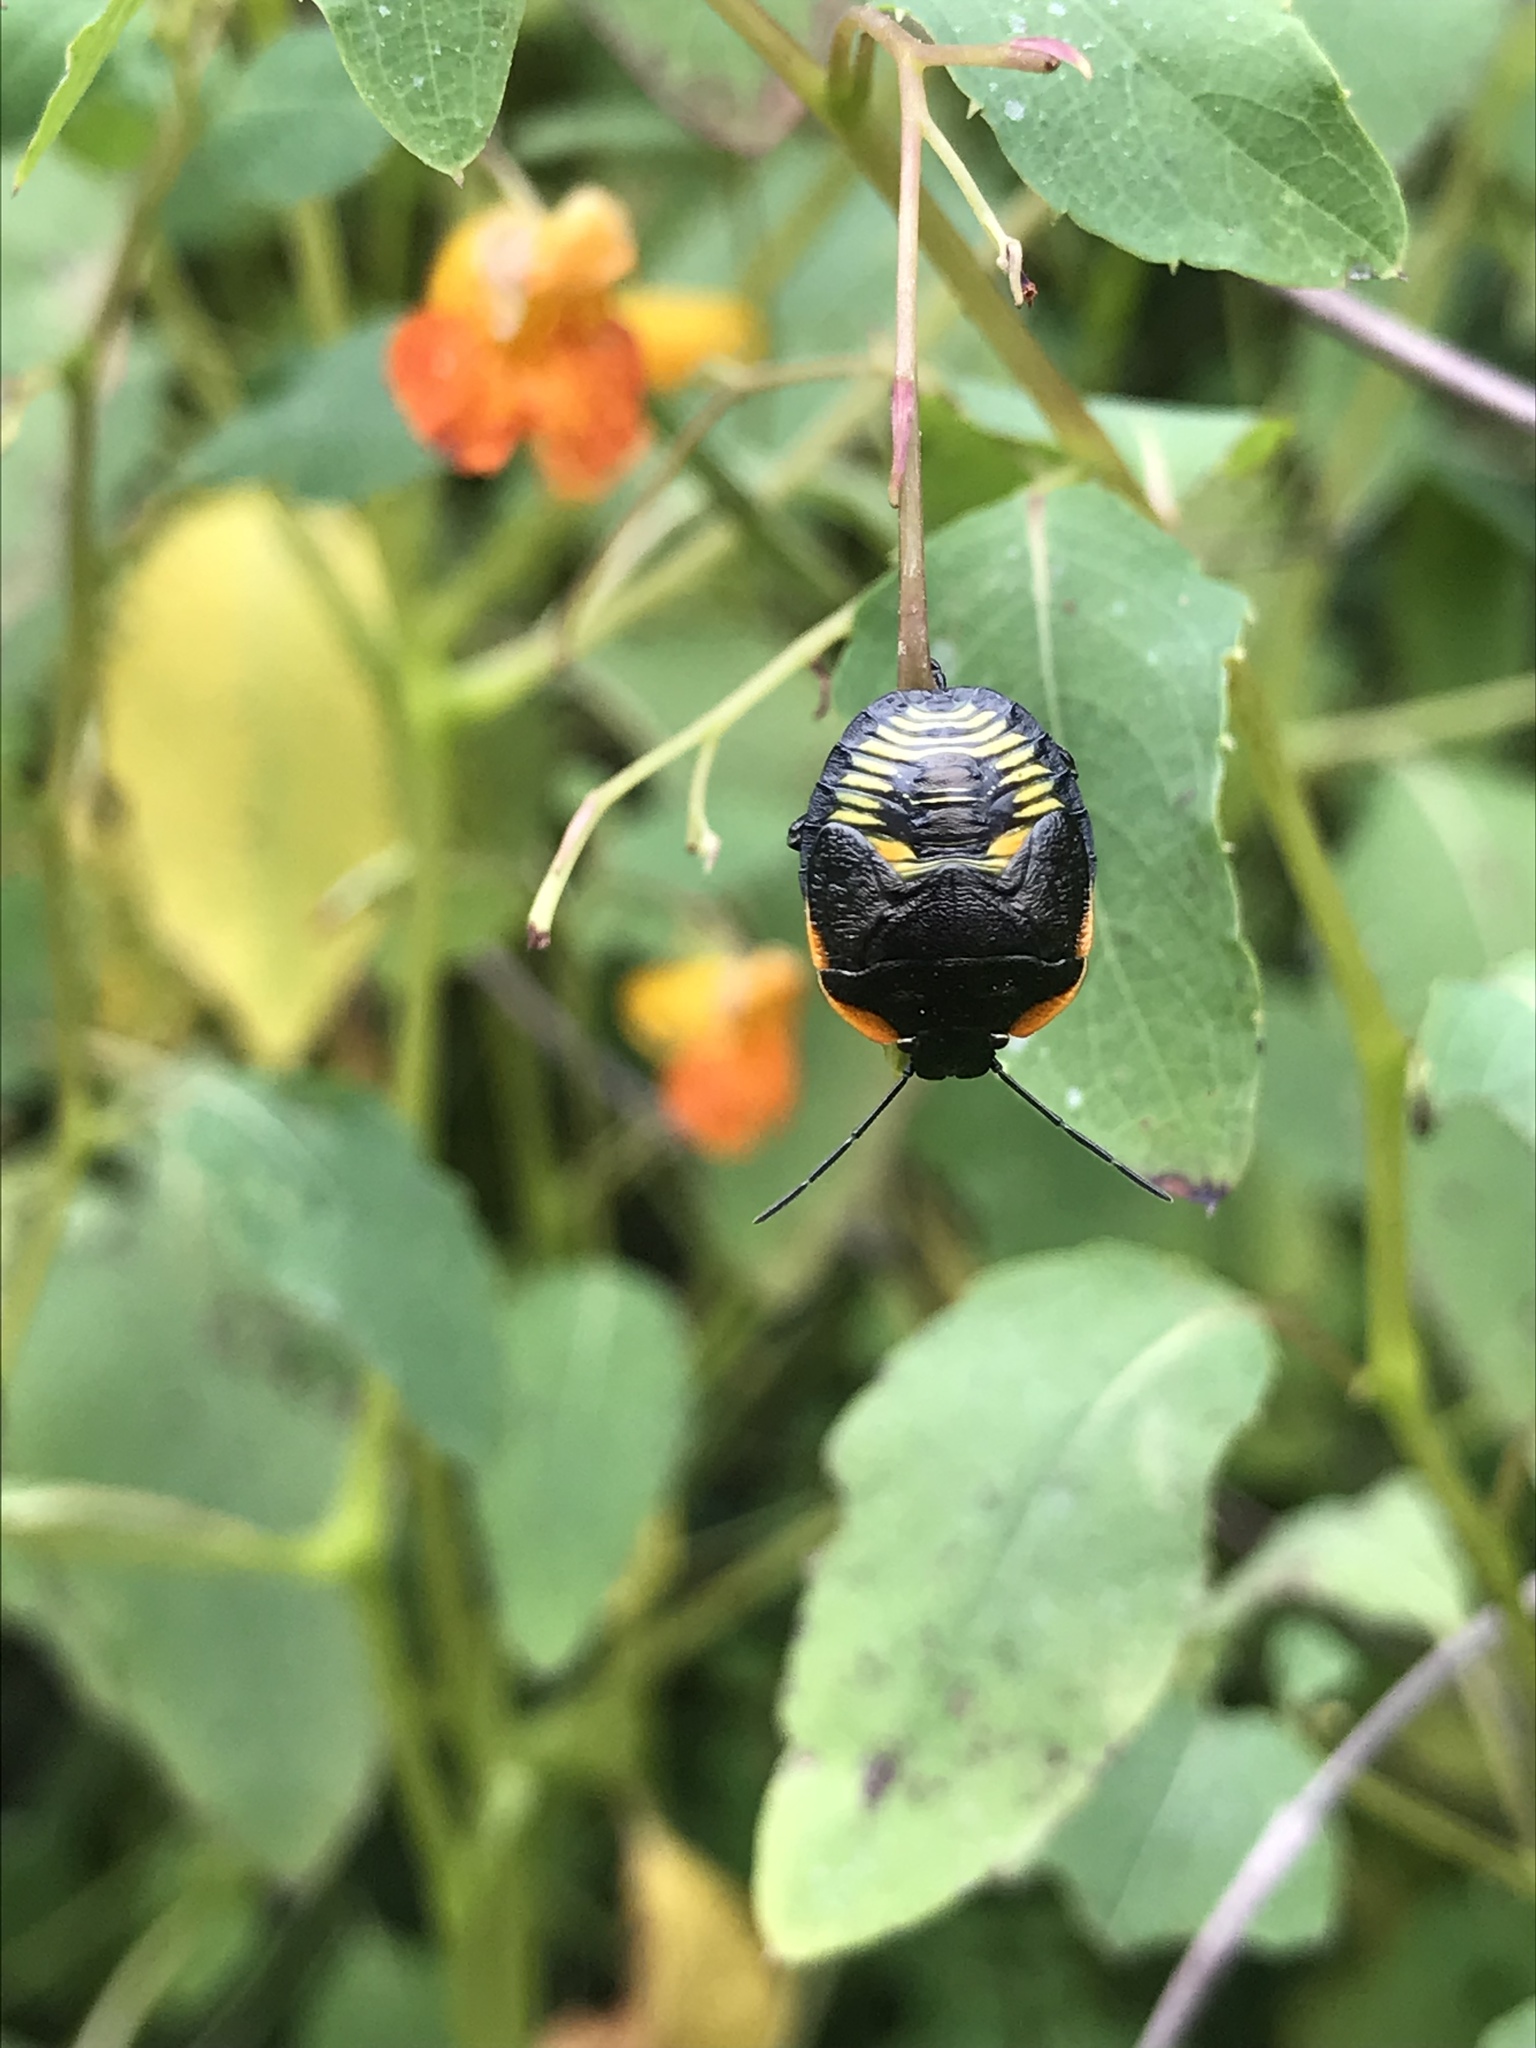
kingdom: Animalia
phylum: Arthropoda
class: Insecta
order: Hemiptera
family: Pentatomidae
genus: Chinavia
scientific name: Chinavia hilaris
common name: Green stink bug
